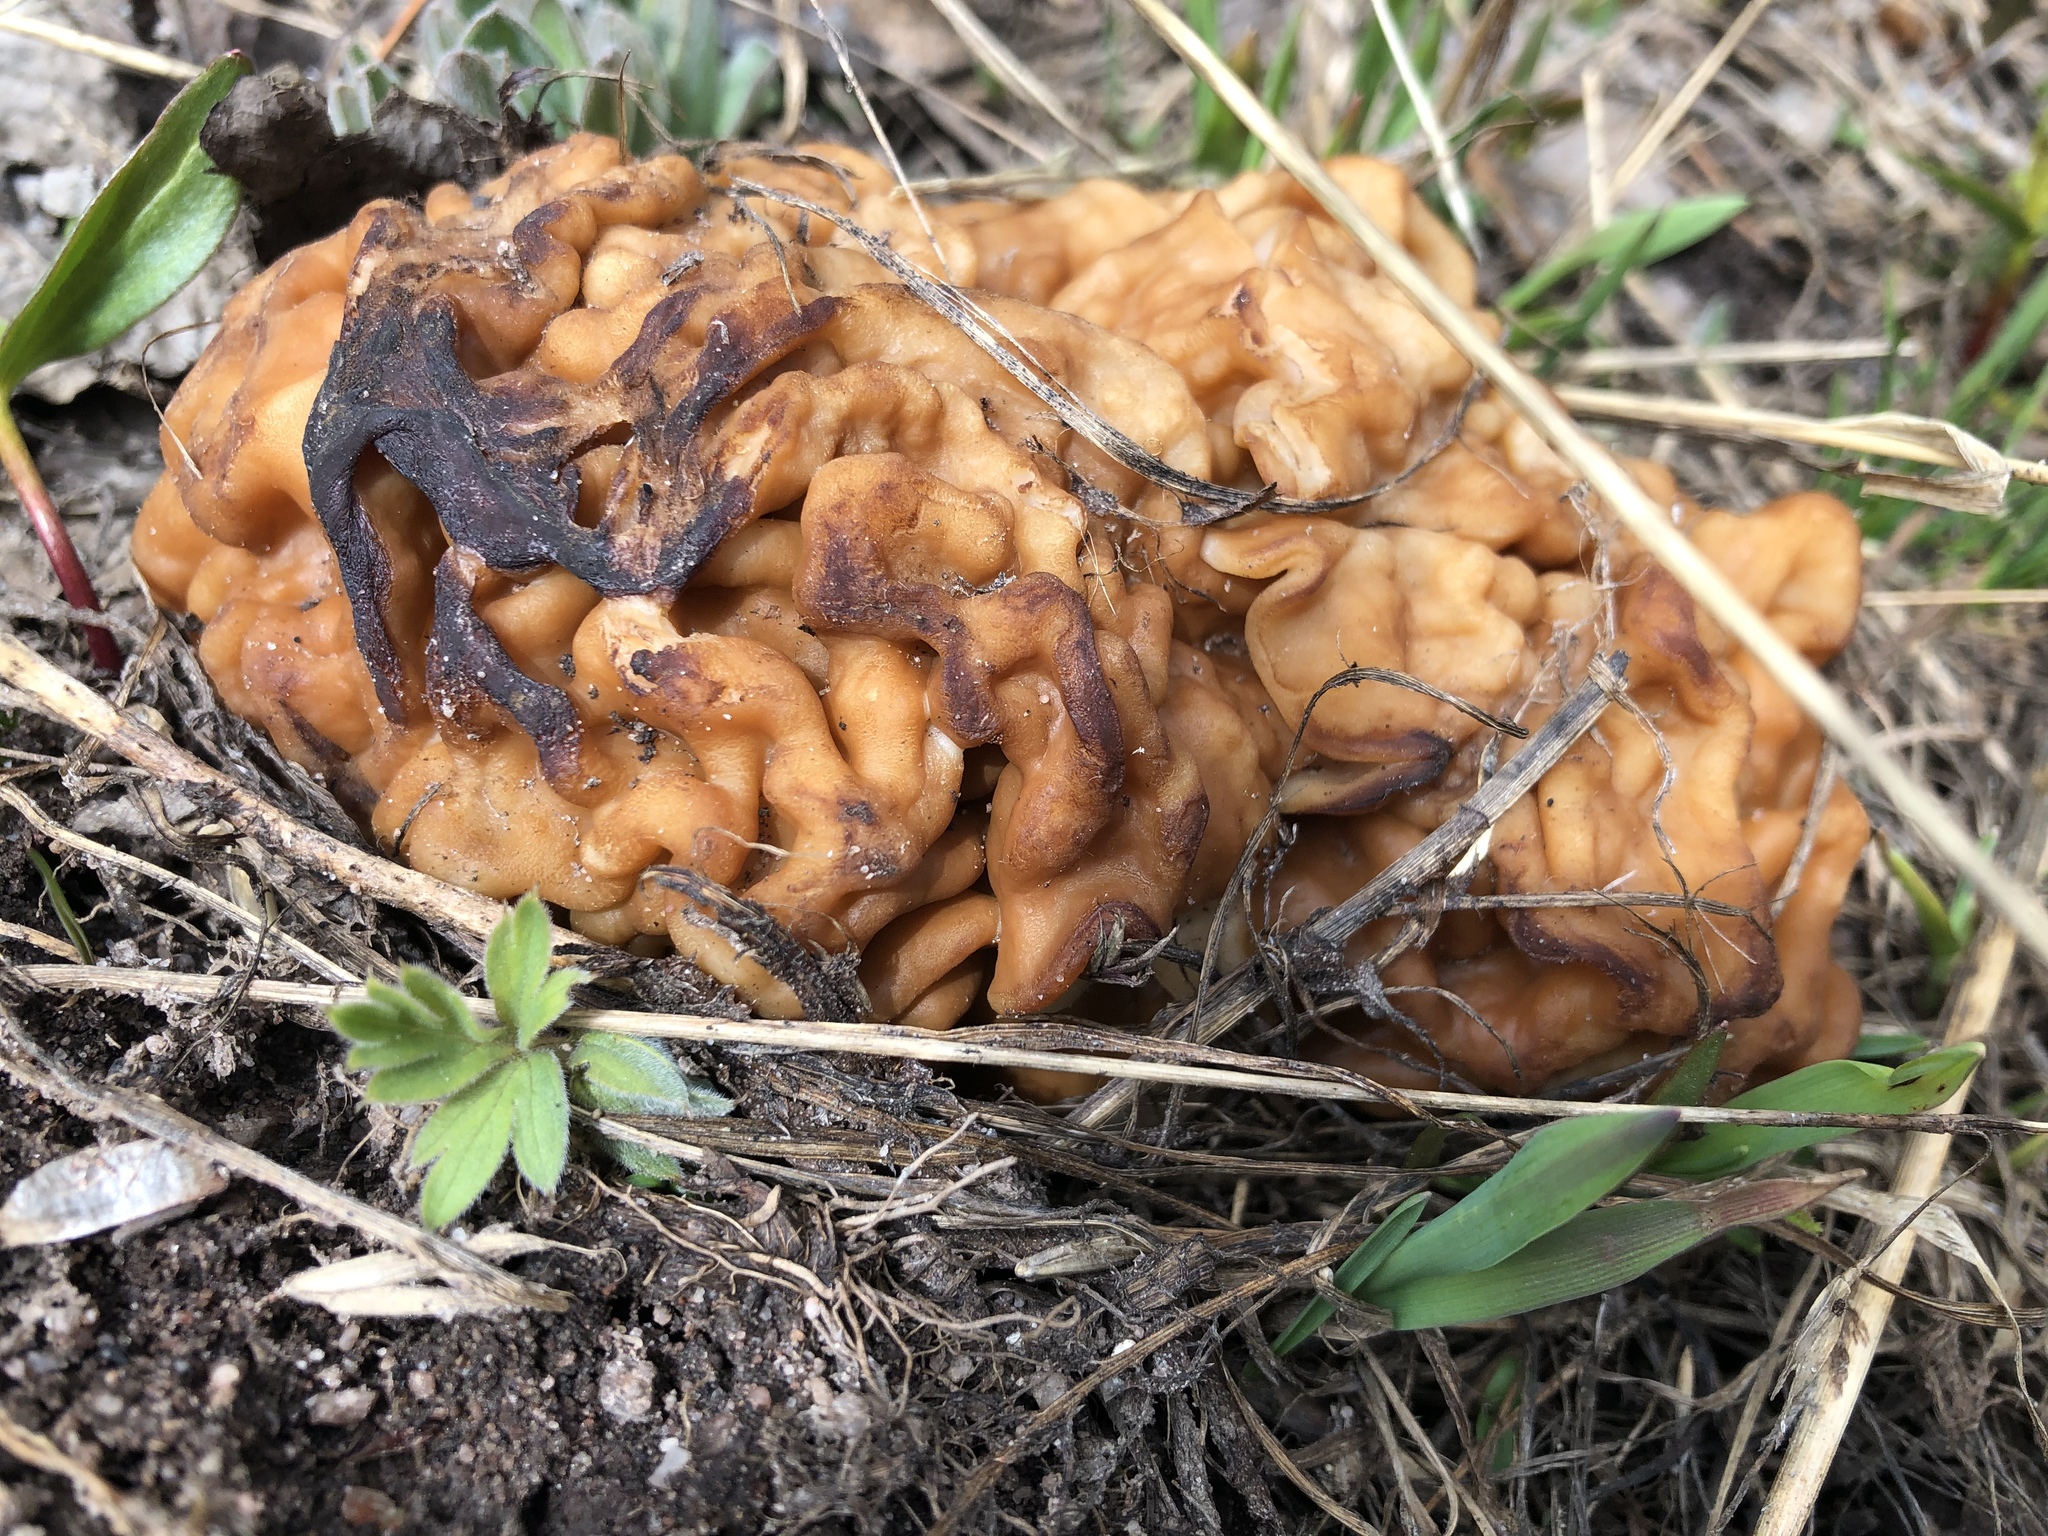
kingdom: Fungi
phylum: Ascomycota
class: Pezizomycetes
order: Pezizales
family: Discinaceae
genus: Discina
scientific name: Discina montana
